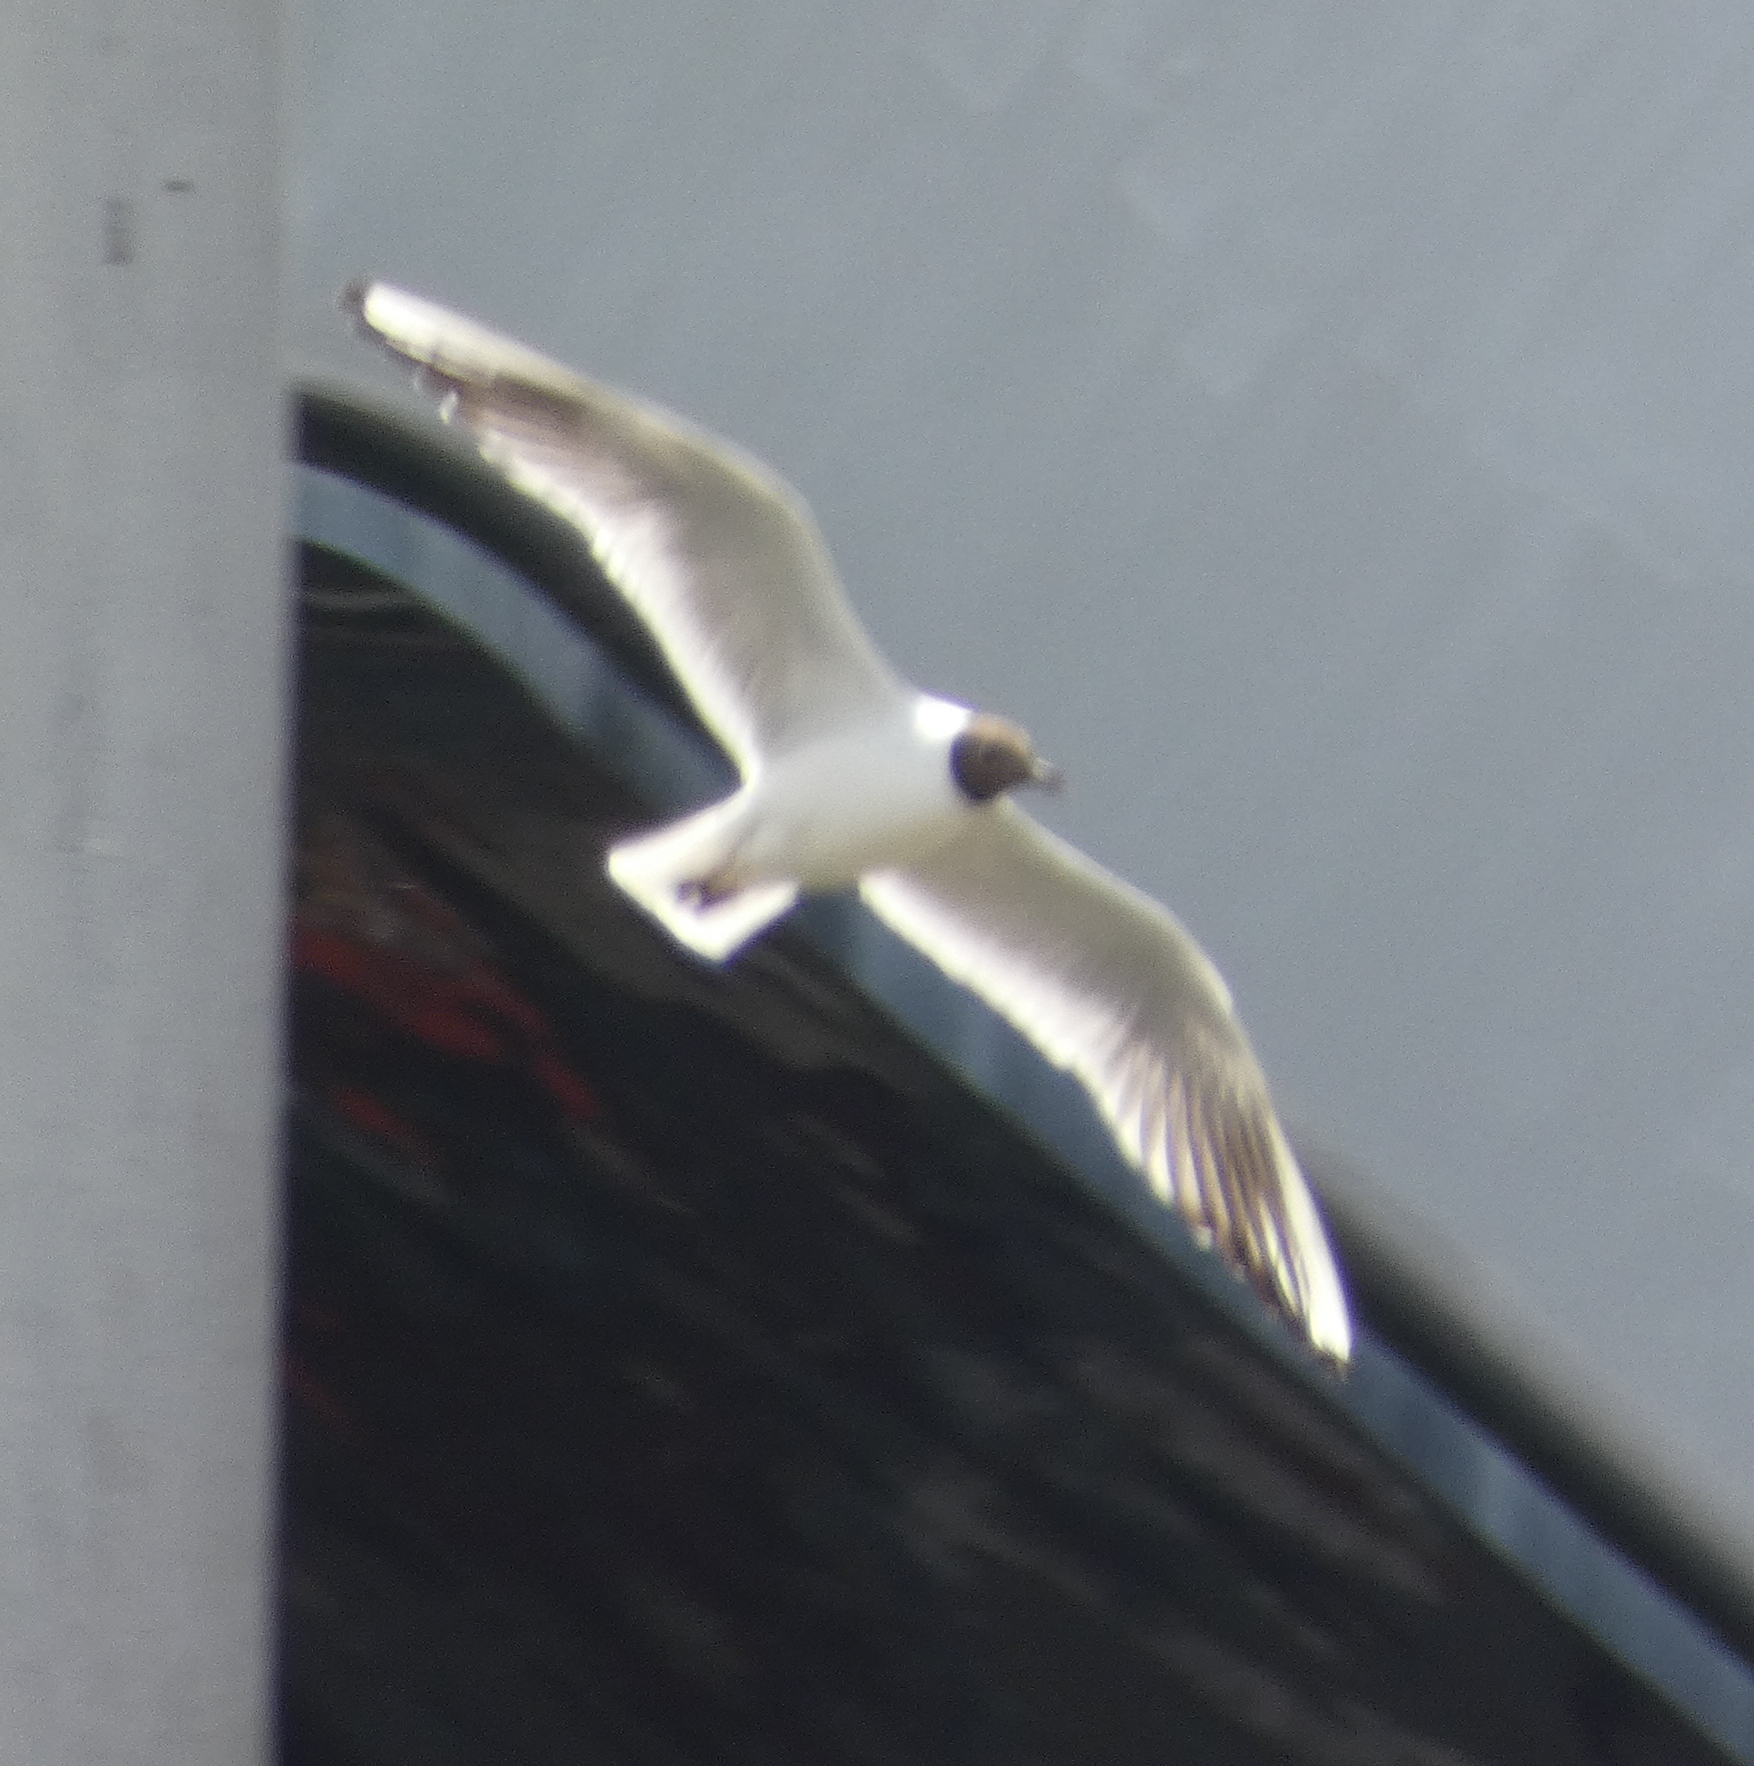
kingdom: Animalia
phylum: Chordata
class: Aves
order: Charadriiformes
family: Laridae
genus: Chroicocephalus
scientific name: Chroicocephalus ridibundus
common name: Black-headed gull
